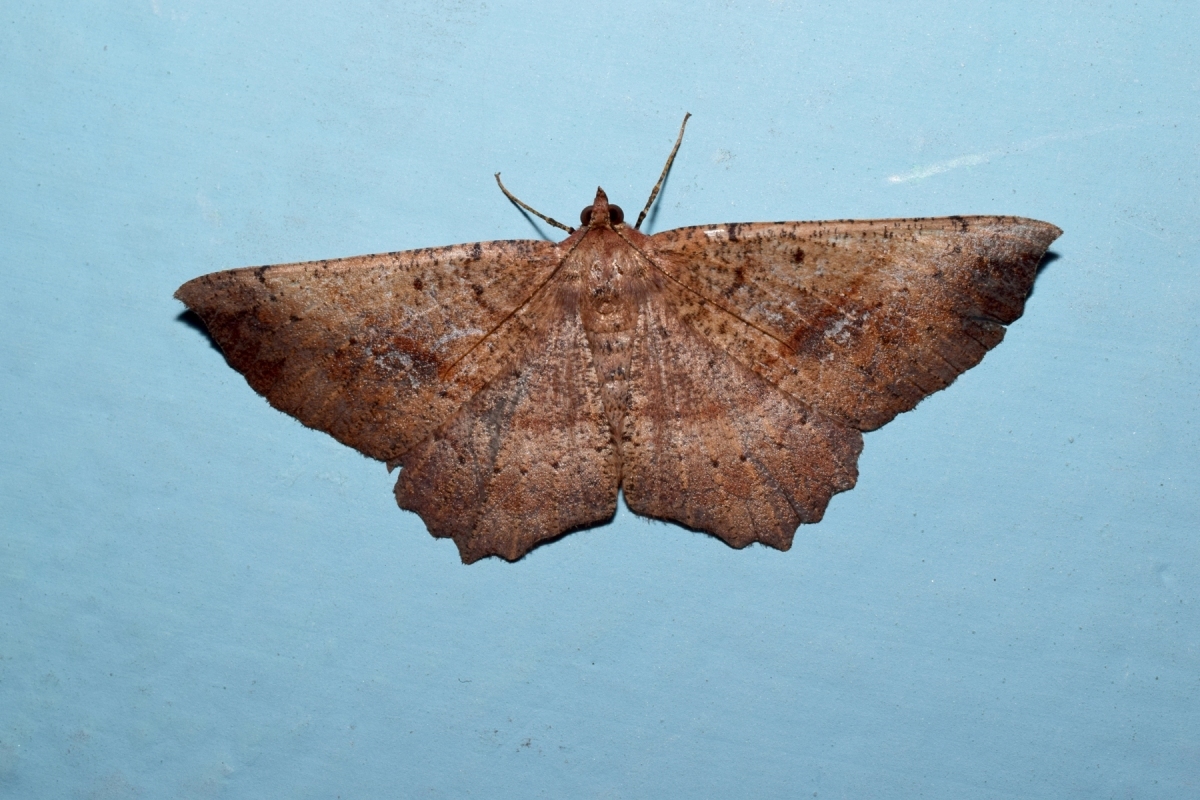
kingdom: Animalia
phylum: Arthropoda
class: Insecta
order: Lepidoptera
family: Geometridae
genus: Xerodes
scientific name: Xerodes ypsaria
